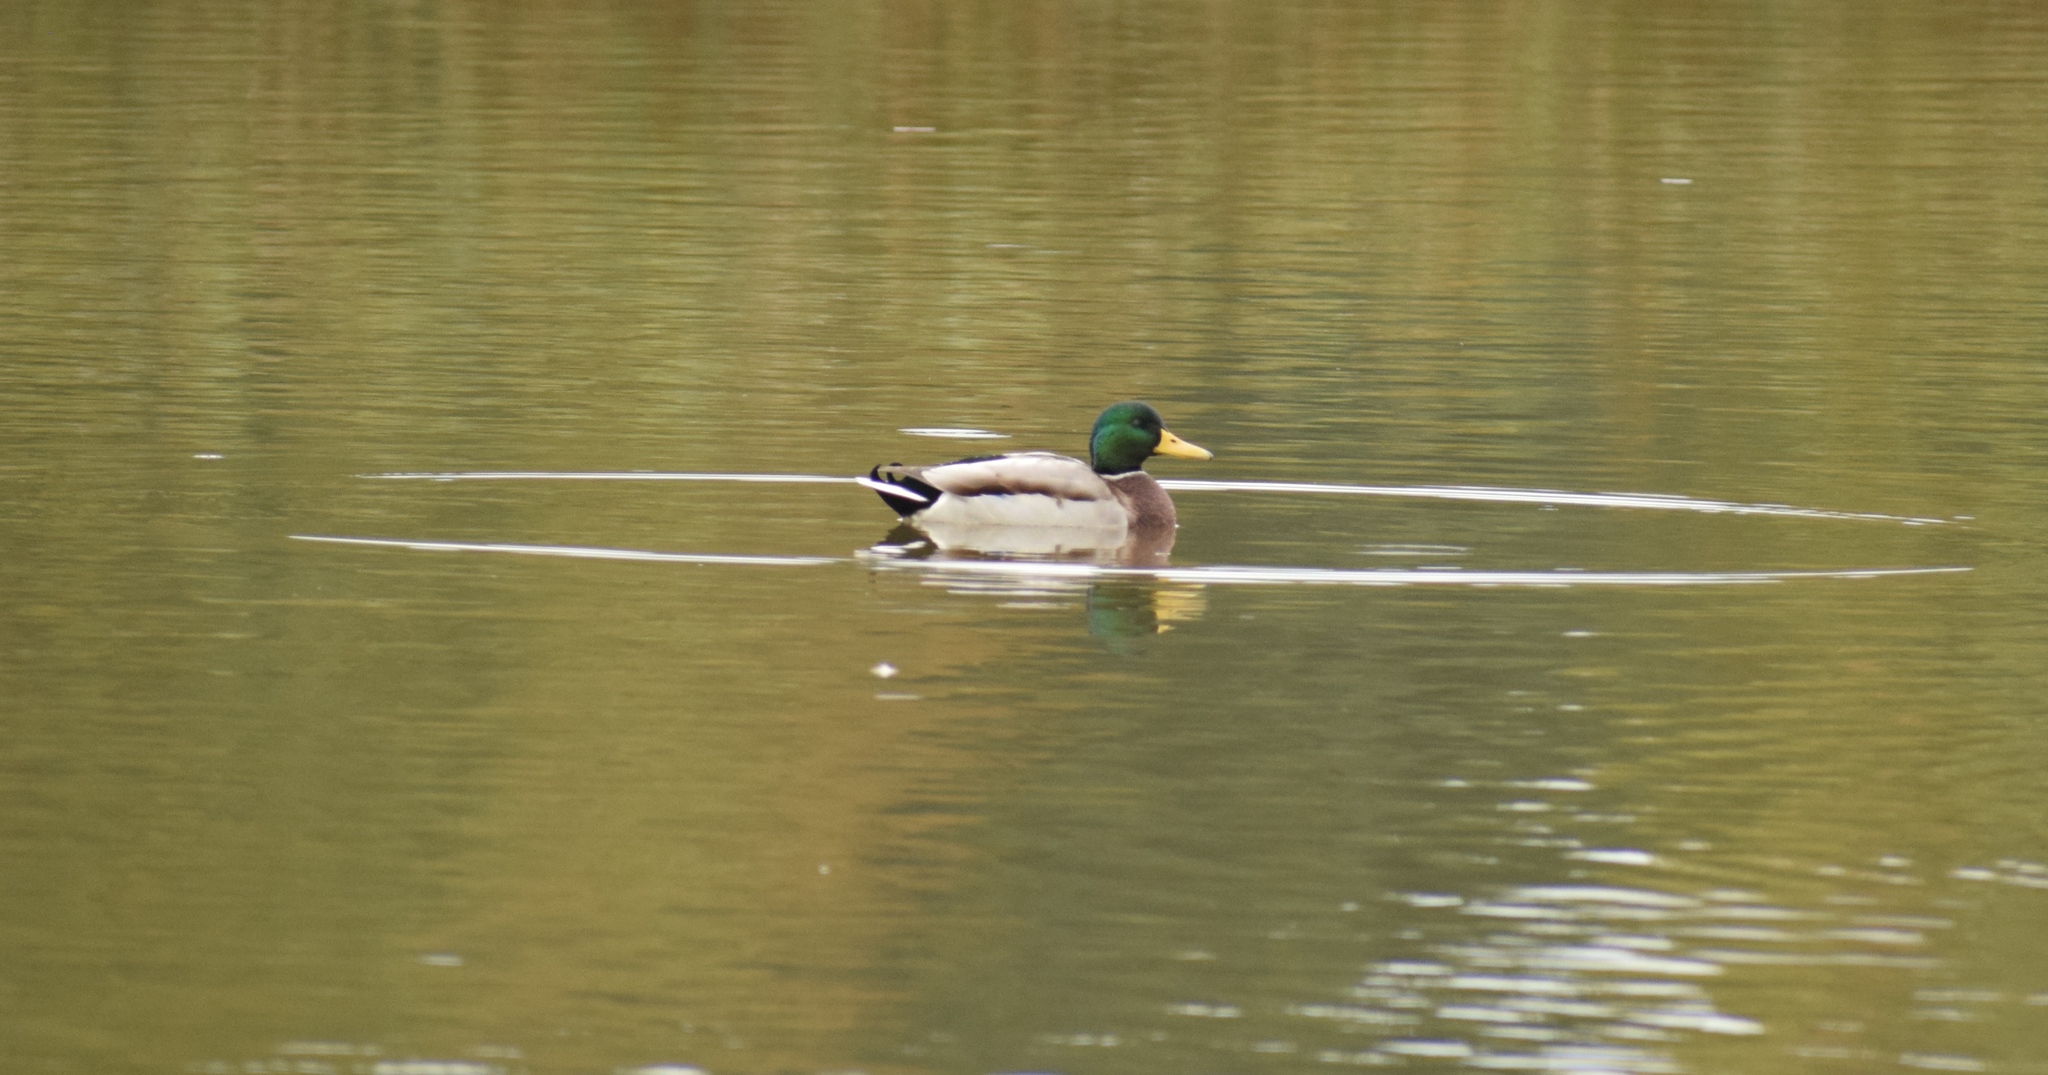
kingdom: Animalia
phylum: Chordata
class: Aves
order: Anseriformes
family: Anatidae
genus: Anas
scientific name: Anas platyrhynchos
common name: Mallard
